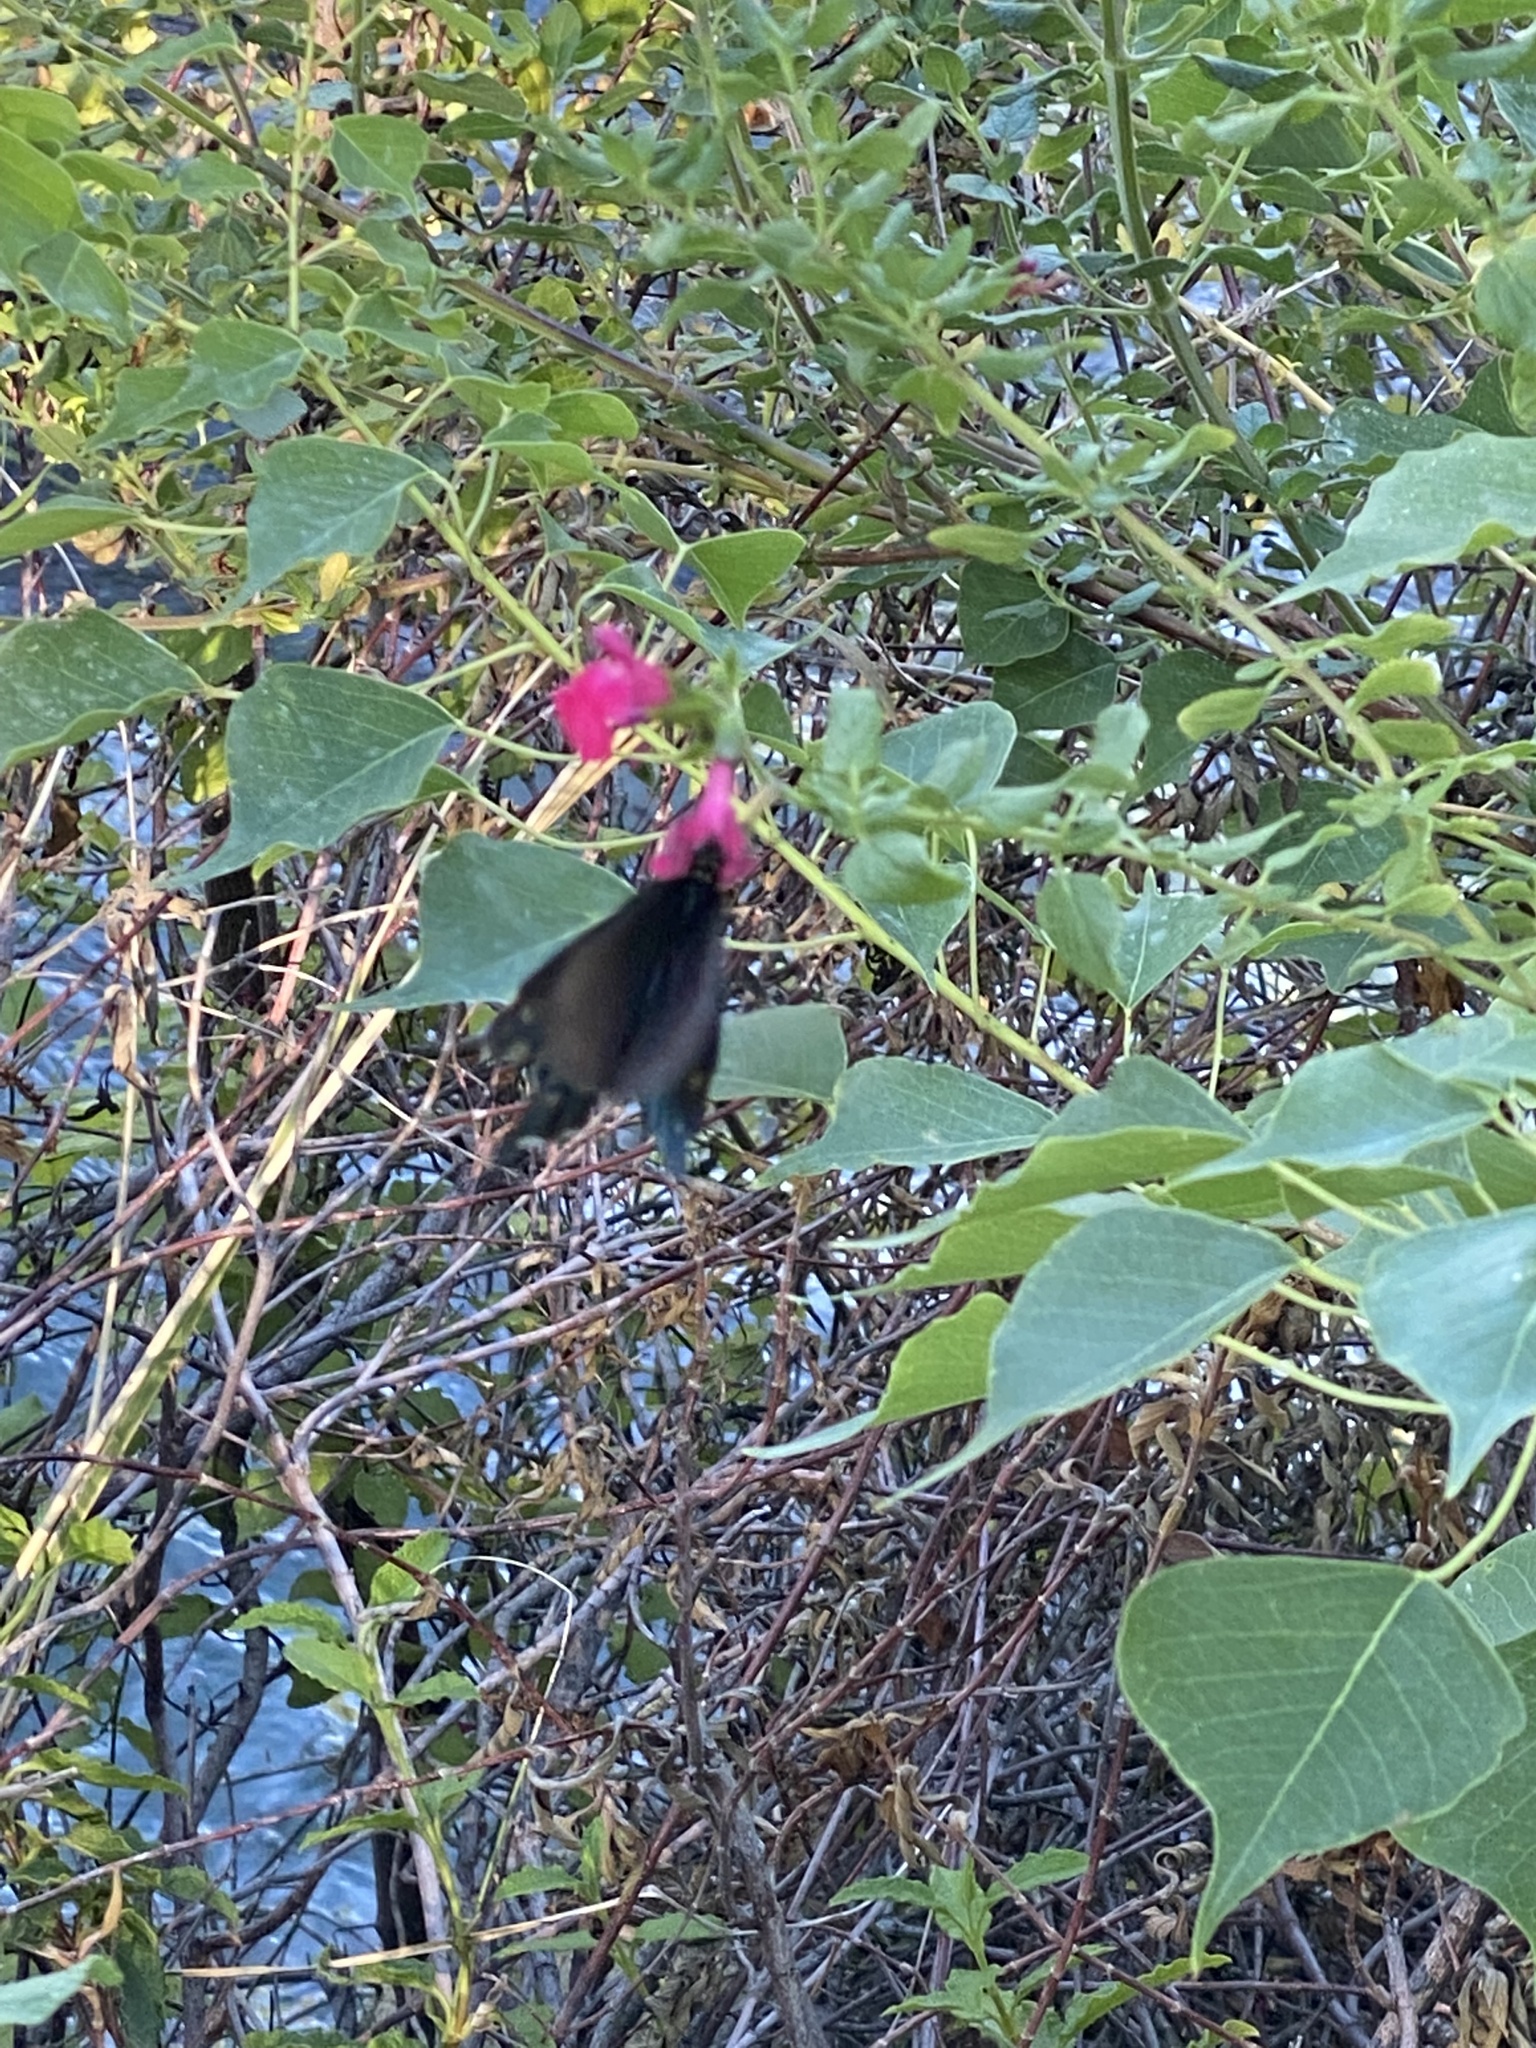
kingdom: Animalia
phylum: Arthropoda
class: Insecta
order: Lepidoptera
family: Papilionidae
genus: Battus
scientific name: Battus philenor
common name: Pipevine swallowtail
